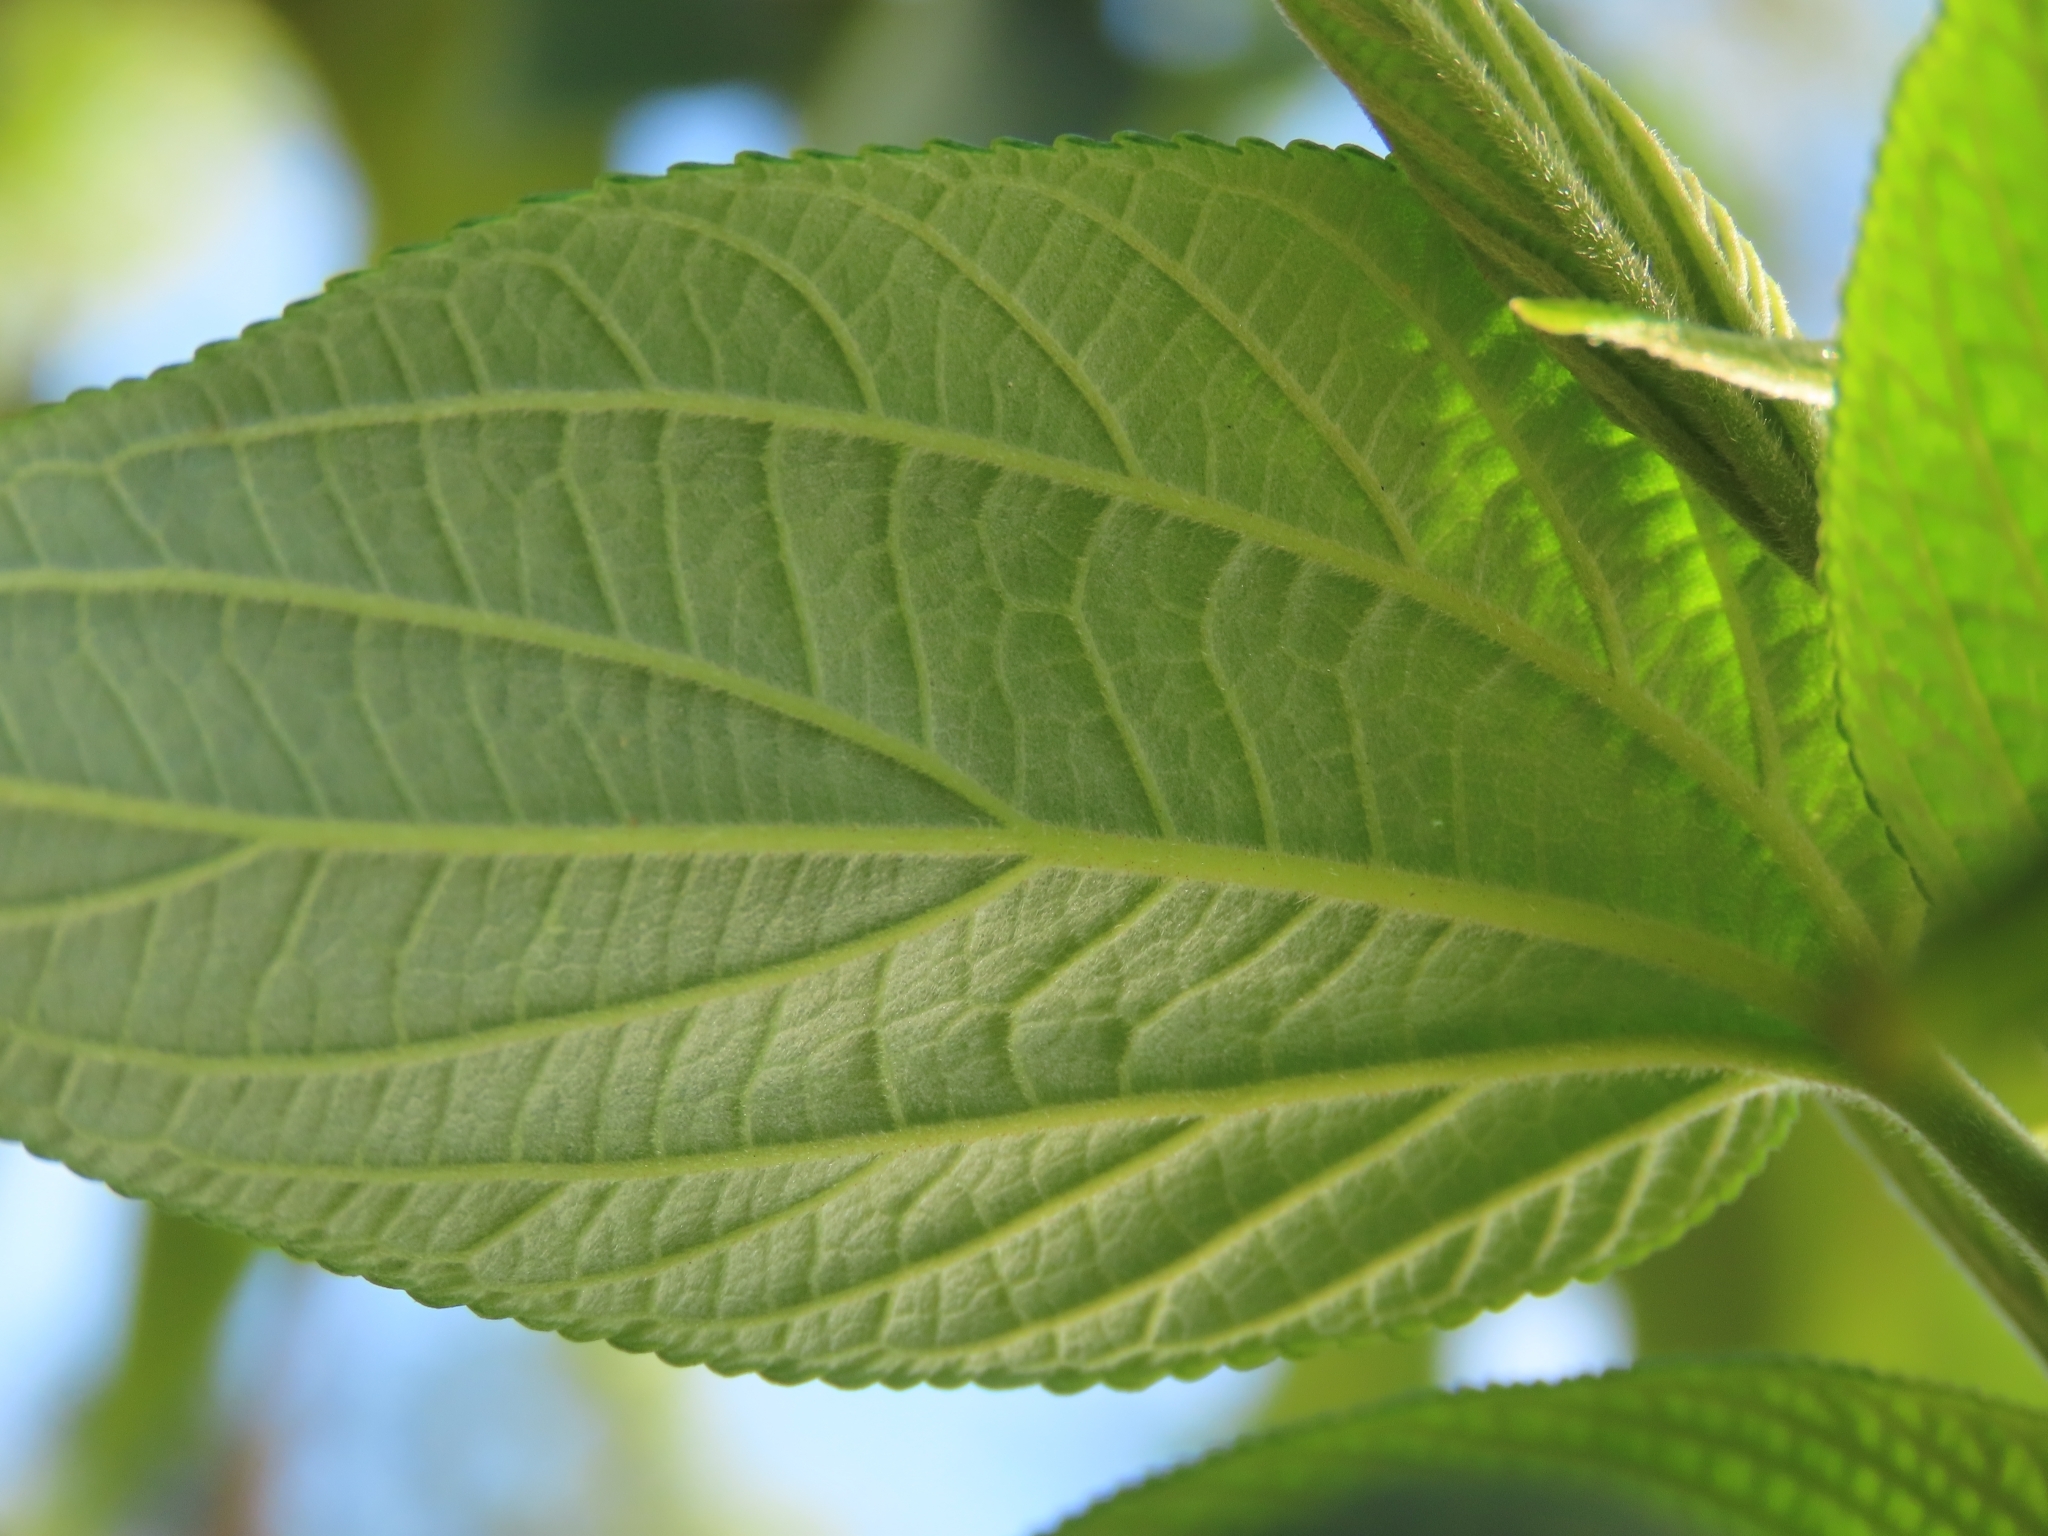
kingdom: Plantae
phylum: Tracheophyta
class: Magnoliopsida
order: Rosales
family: Cannabaceae
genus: Trema
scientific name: Trema orientale
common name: Indian charcoal tree
